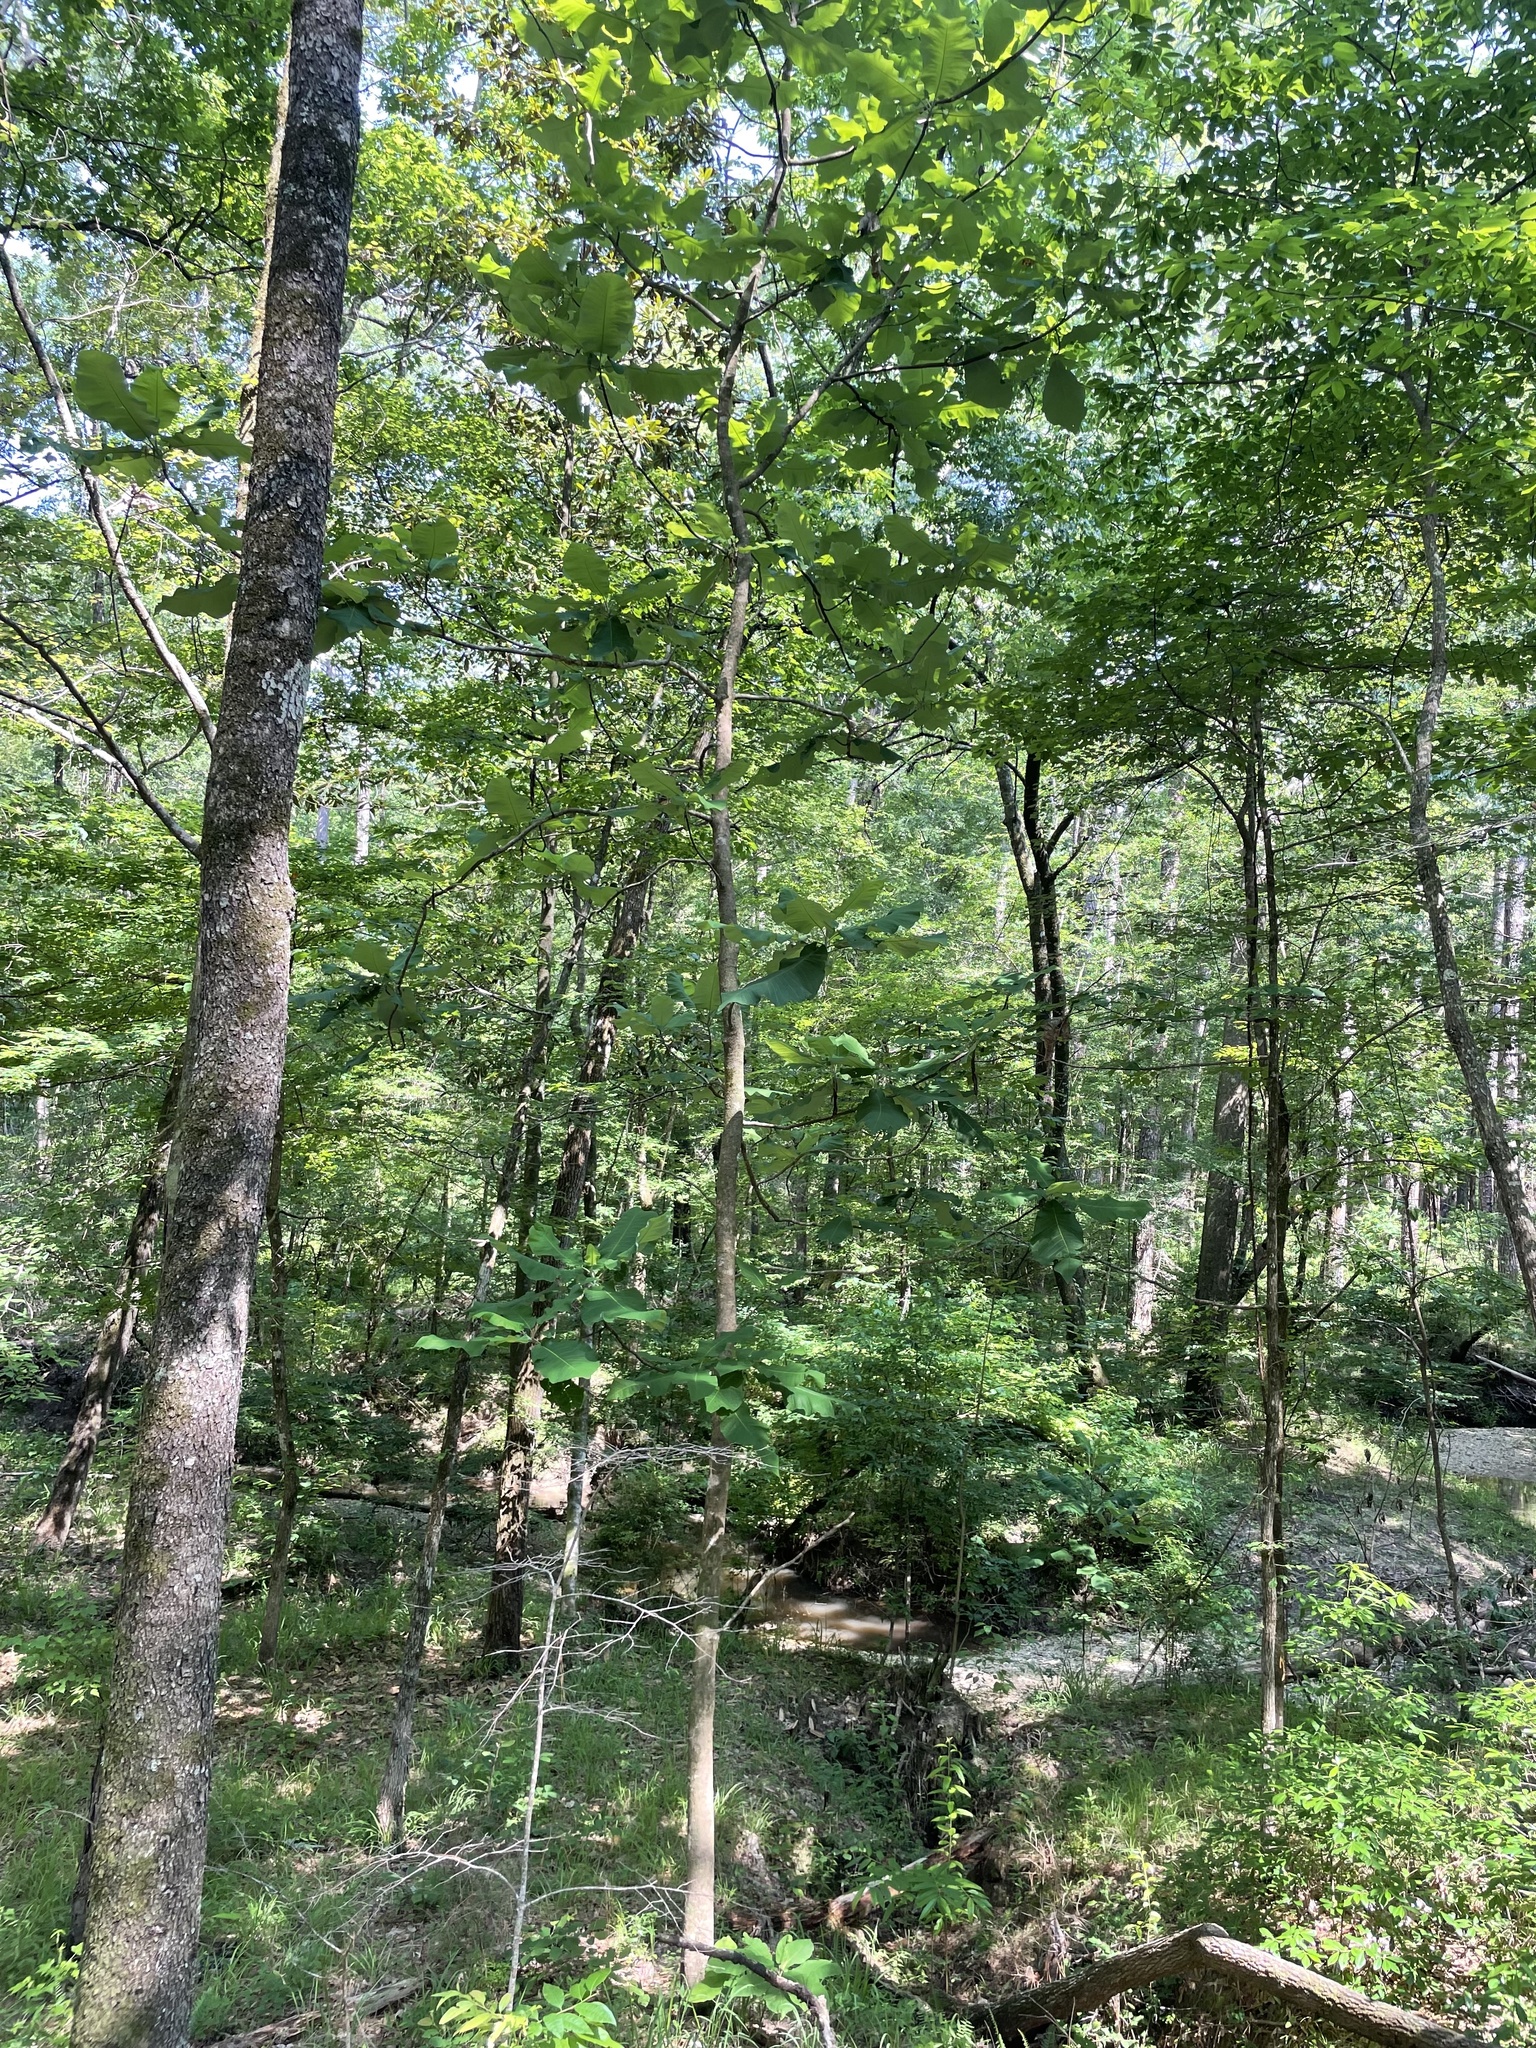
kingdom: Plantae
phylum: Tracheophyta
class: Magnoliopsida
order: Magnoliales
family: Magnoliaceae
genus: Magnolia
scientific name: Magnolia macrophylla
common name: Big-leaf magnolia
